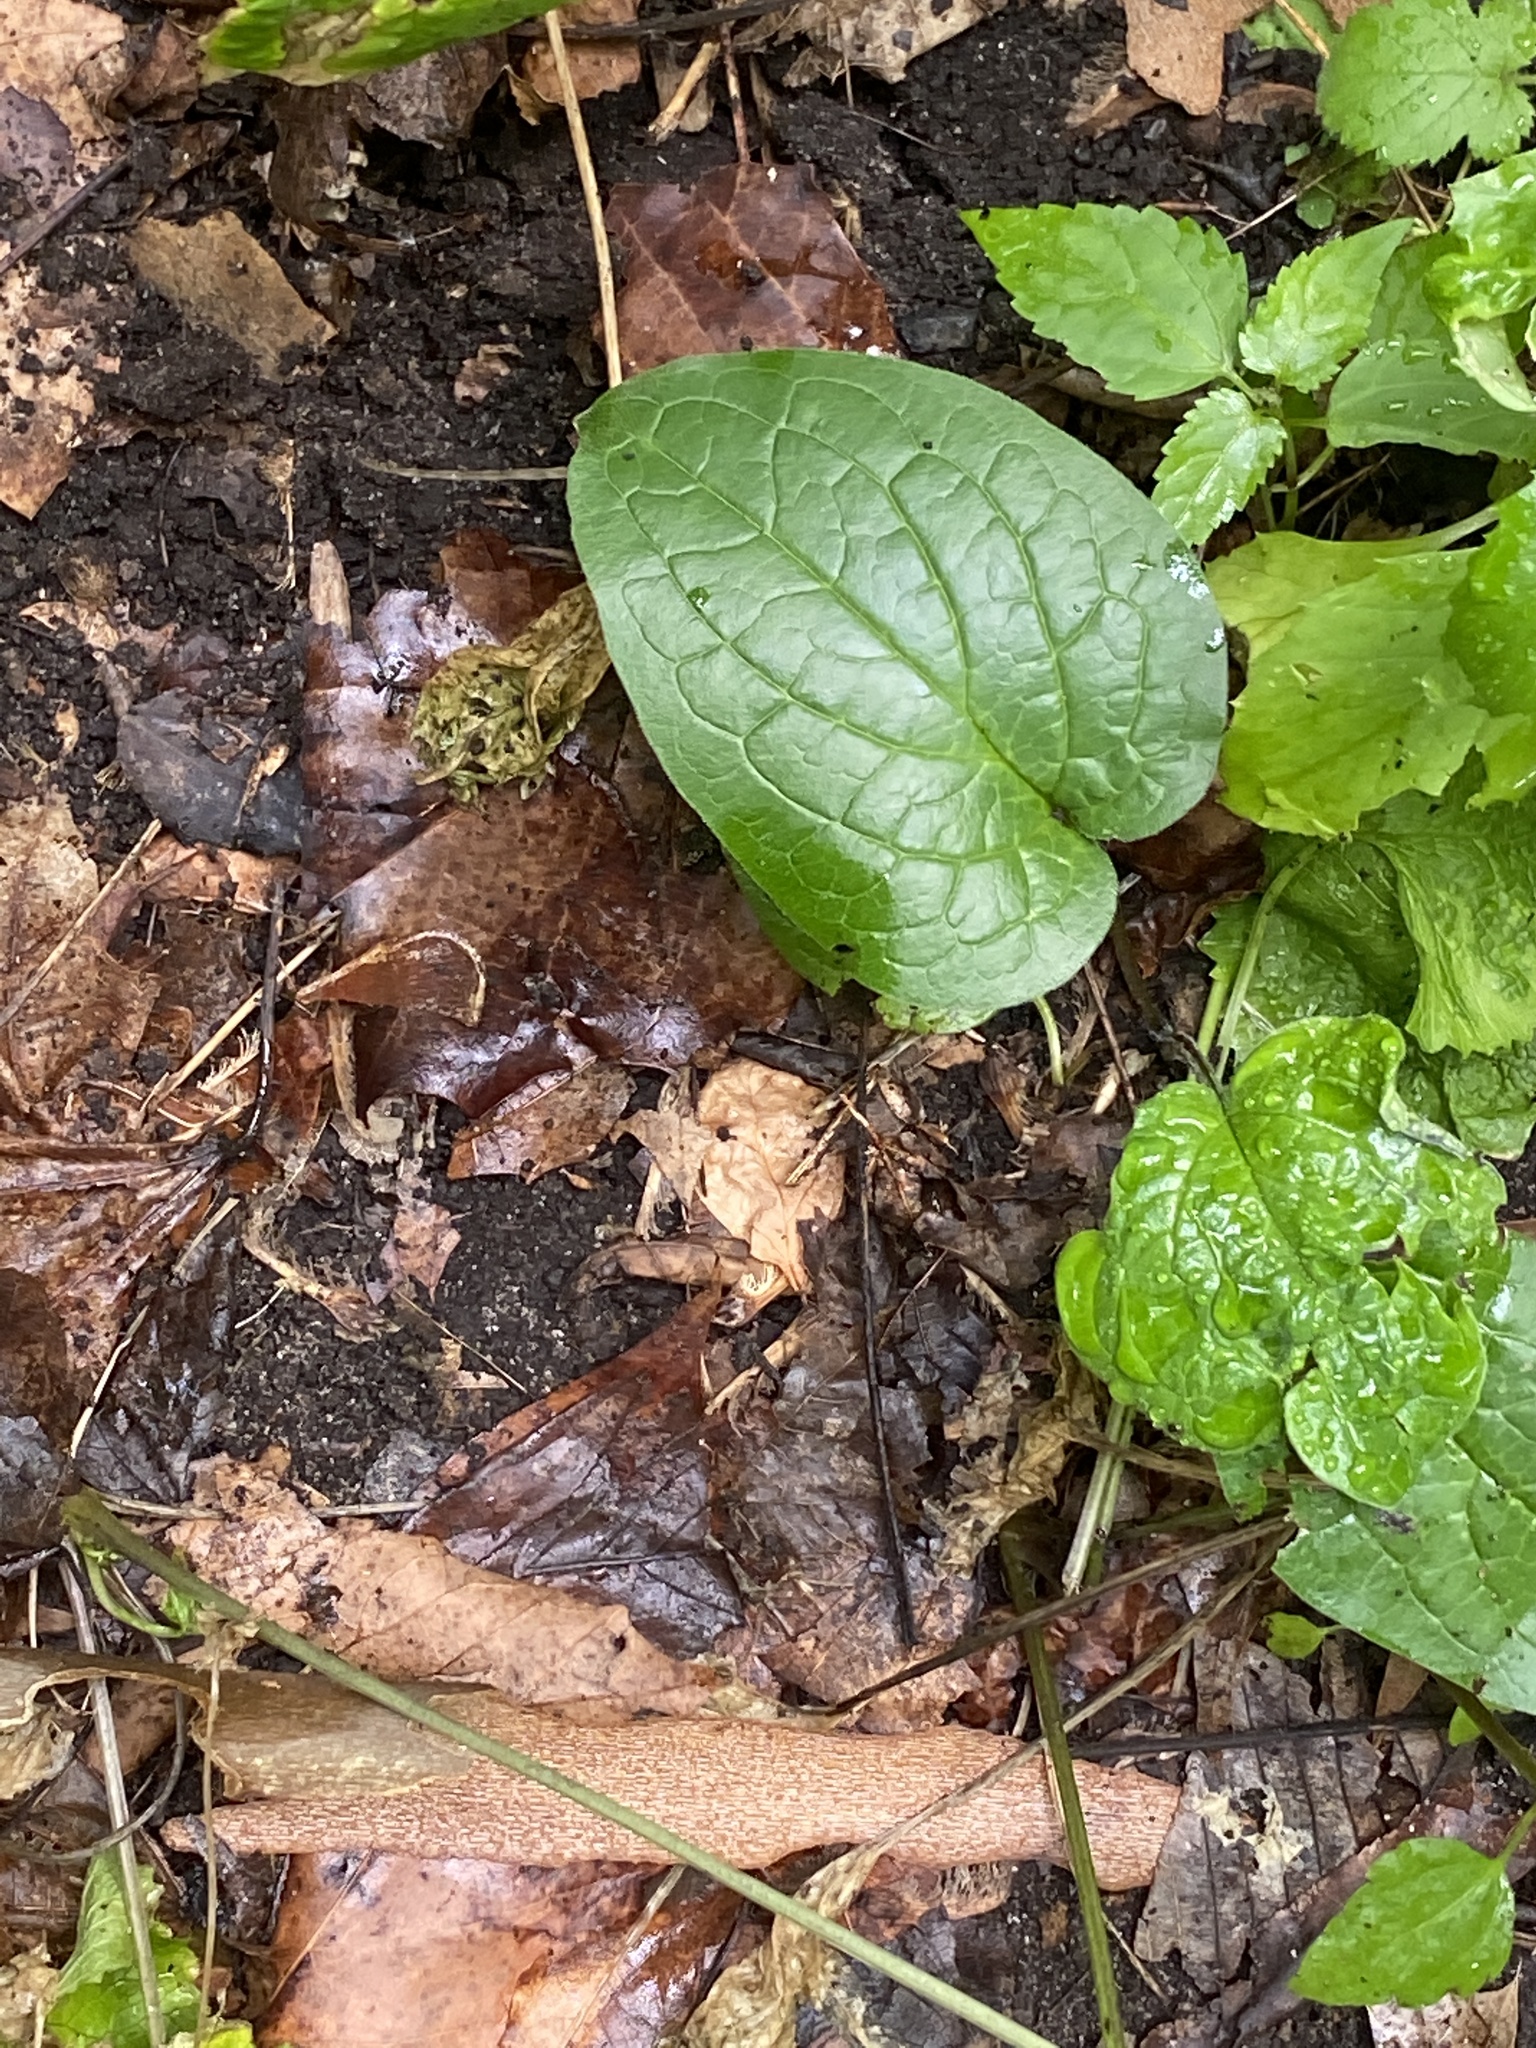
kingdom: Plantae
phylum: Tracheophyta
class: Magnoliopsida
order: Boraginales
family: Boraginaceae
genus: Hackelia
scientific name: Hackelia virginiana
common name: Beggar's-lice
